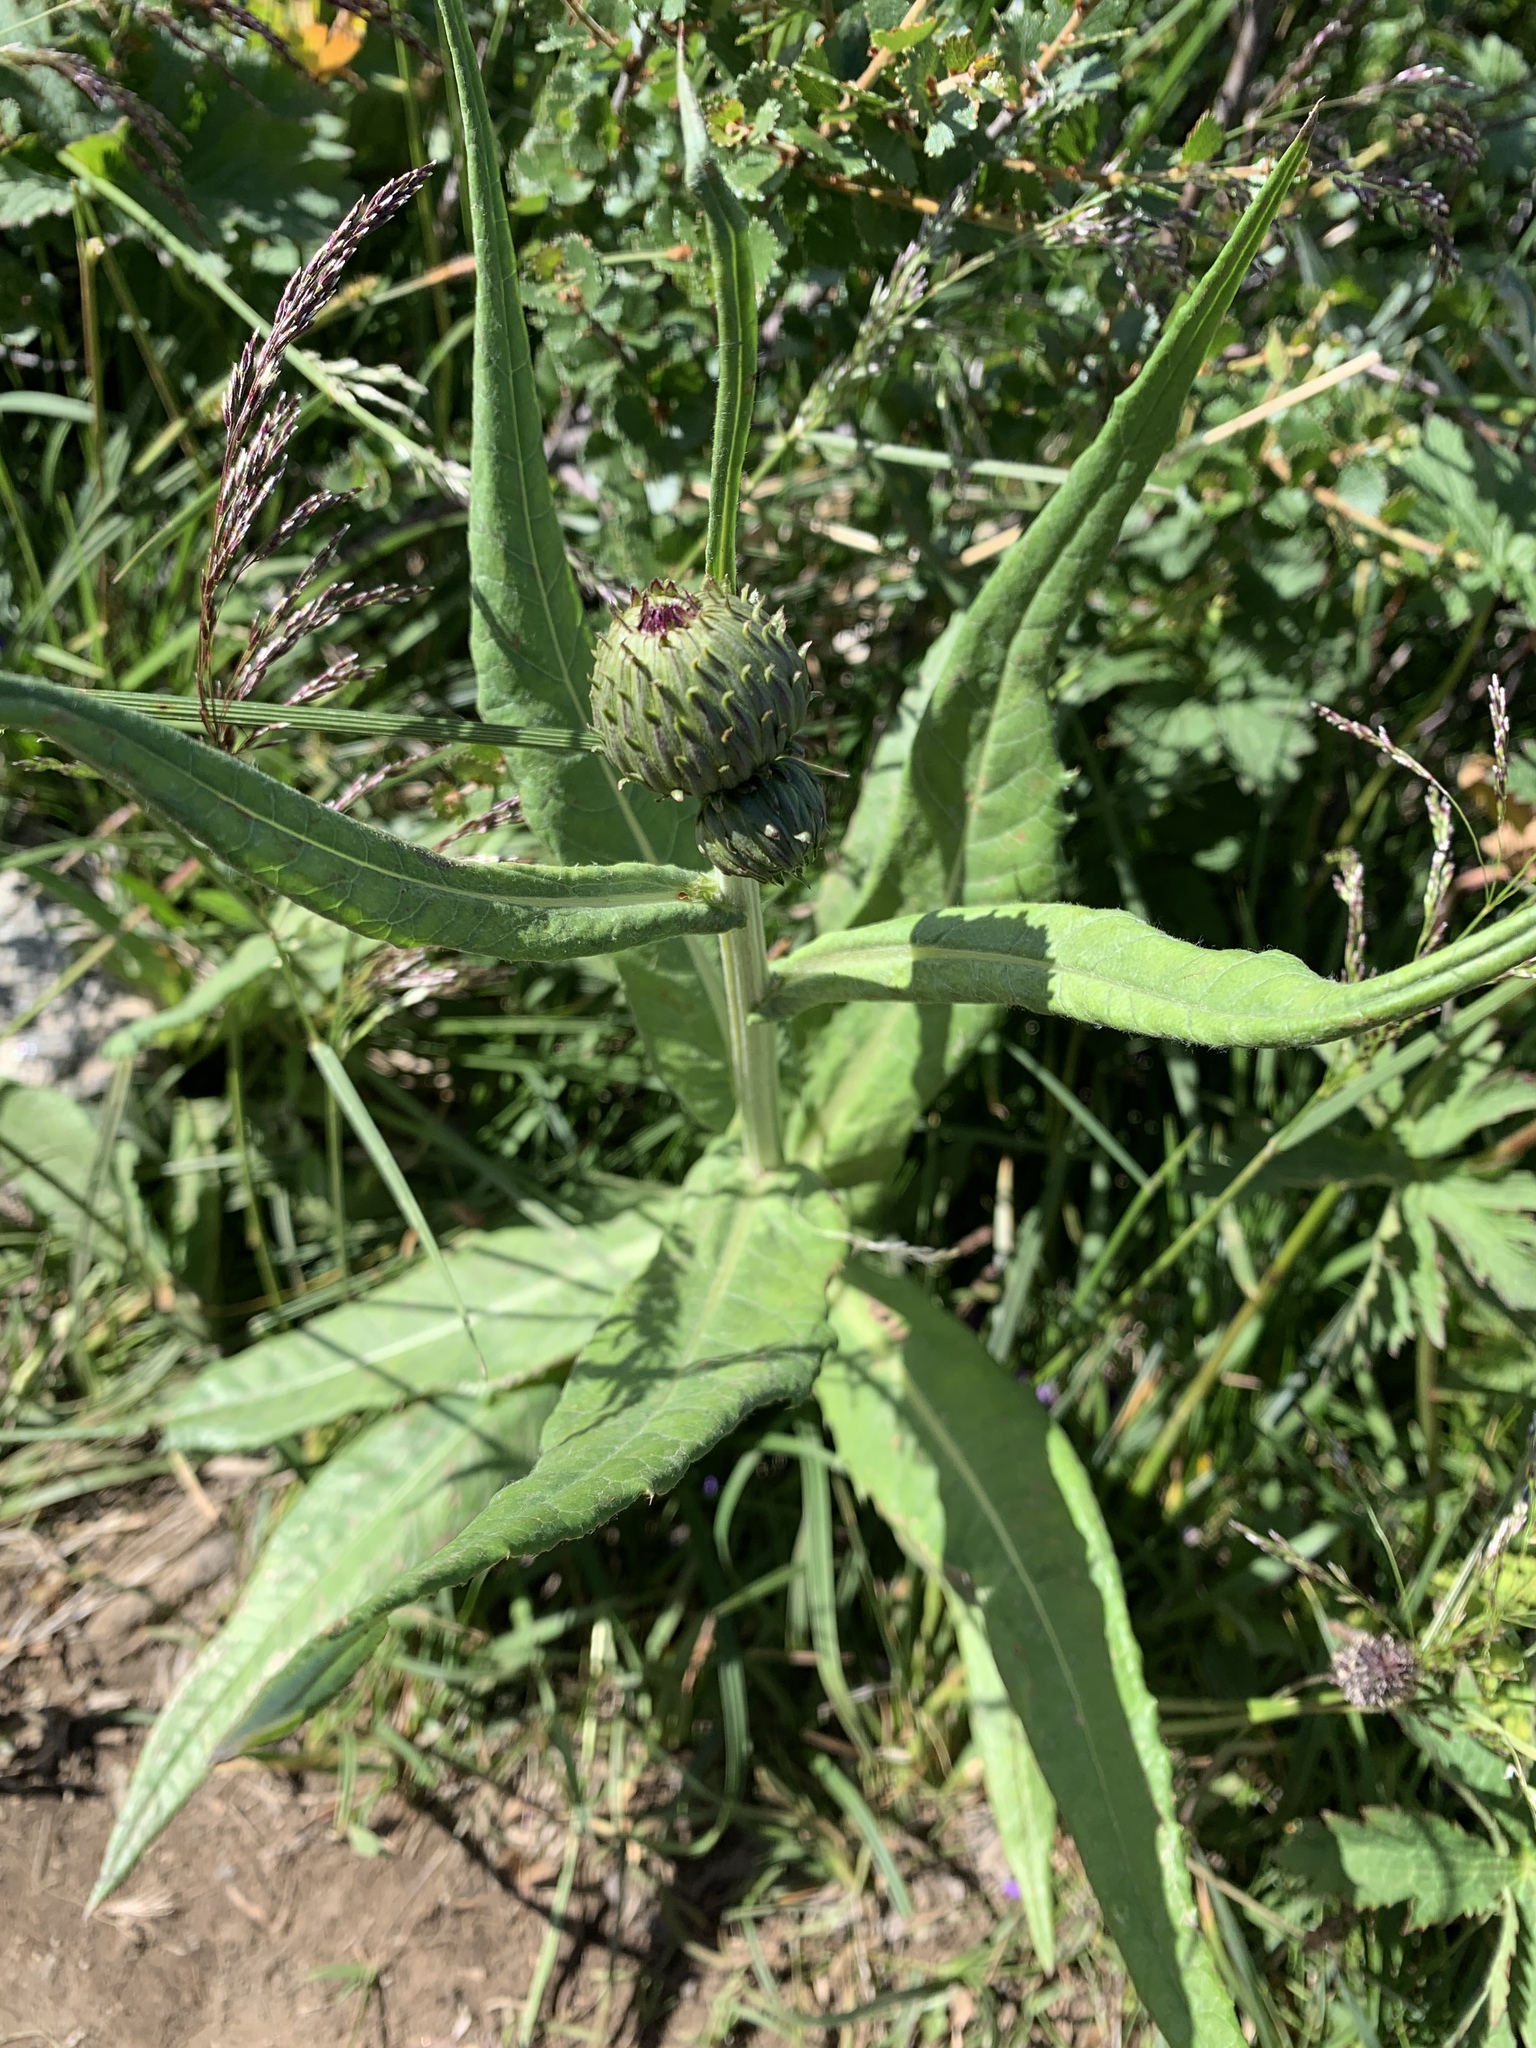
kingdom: Plantae
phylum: Tracheophyta
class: Magnoliopsida
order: Asterales
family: Asteraceae
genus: Cirsium
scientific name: Cirsium heterophyllum
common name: Melancholy thistle
